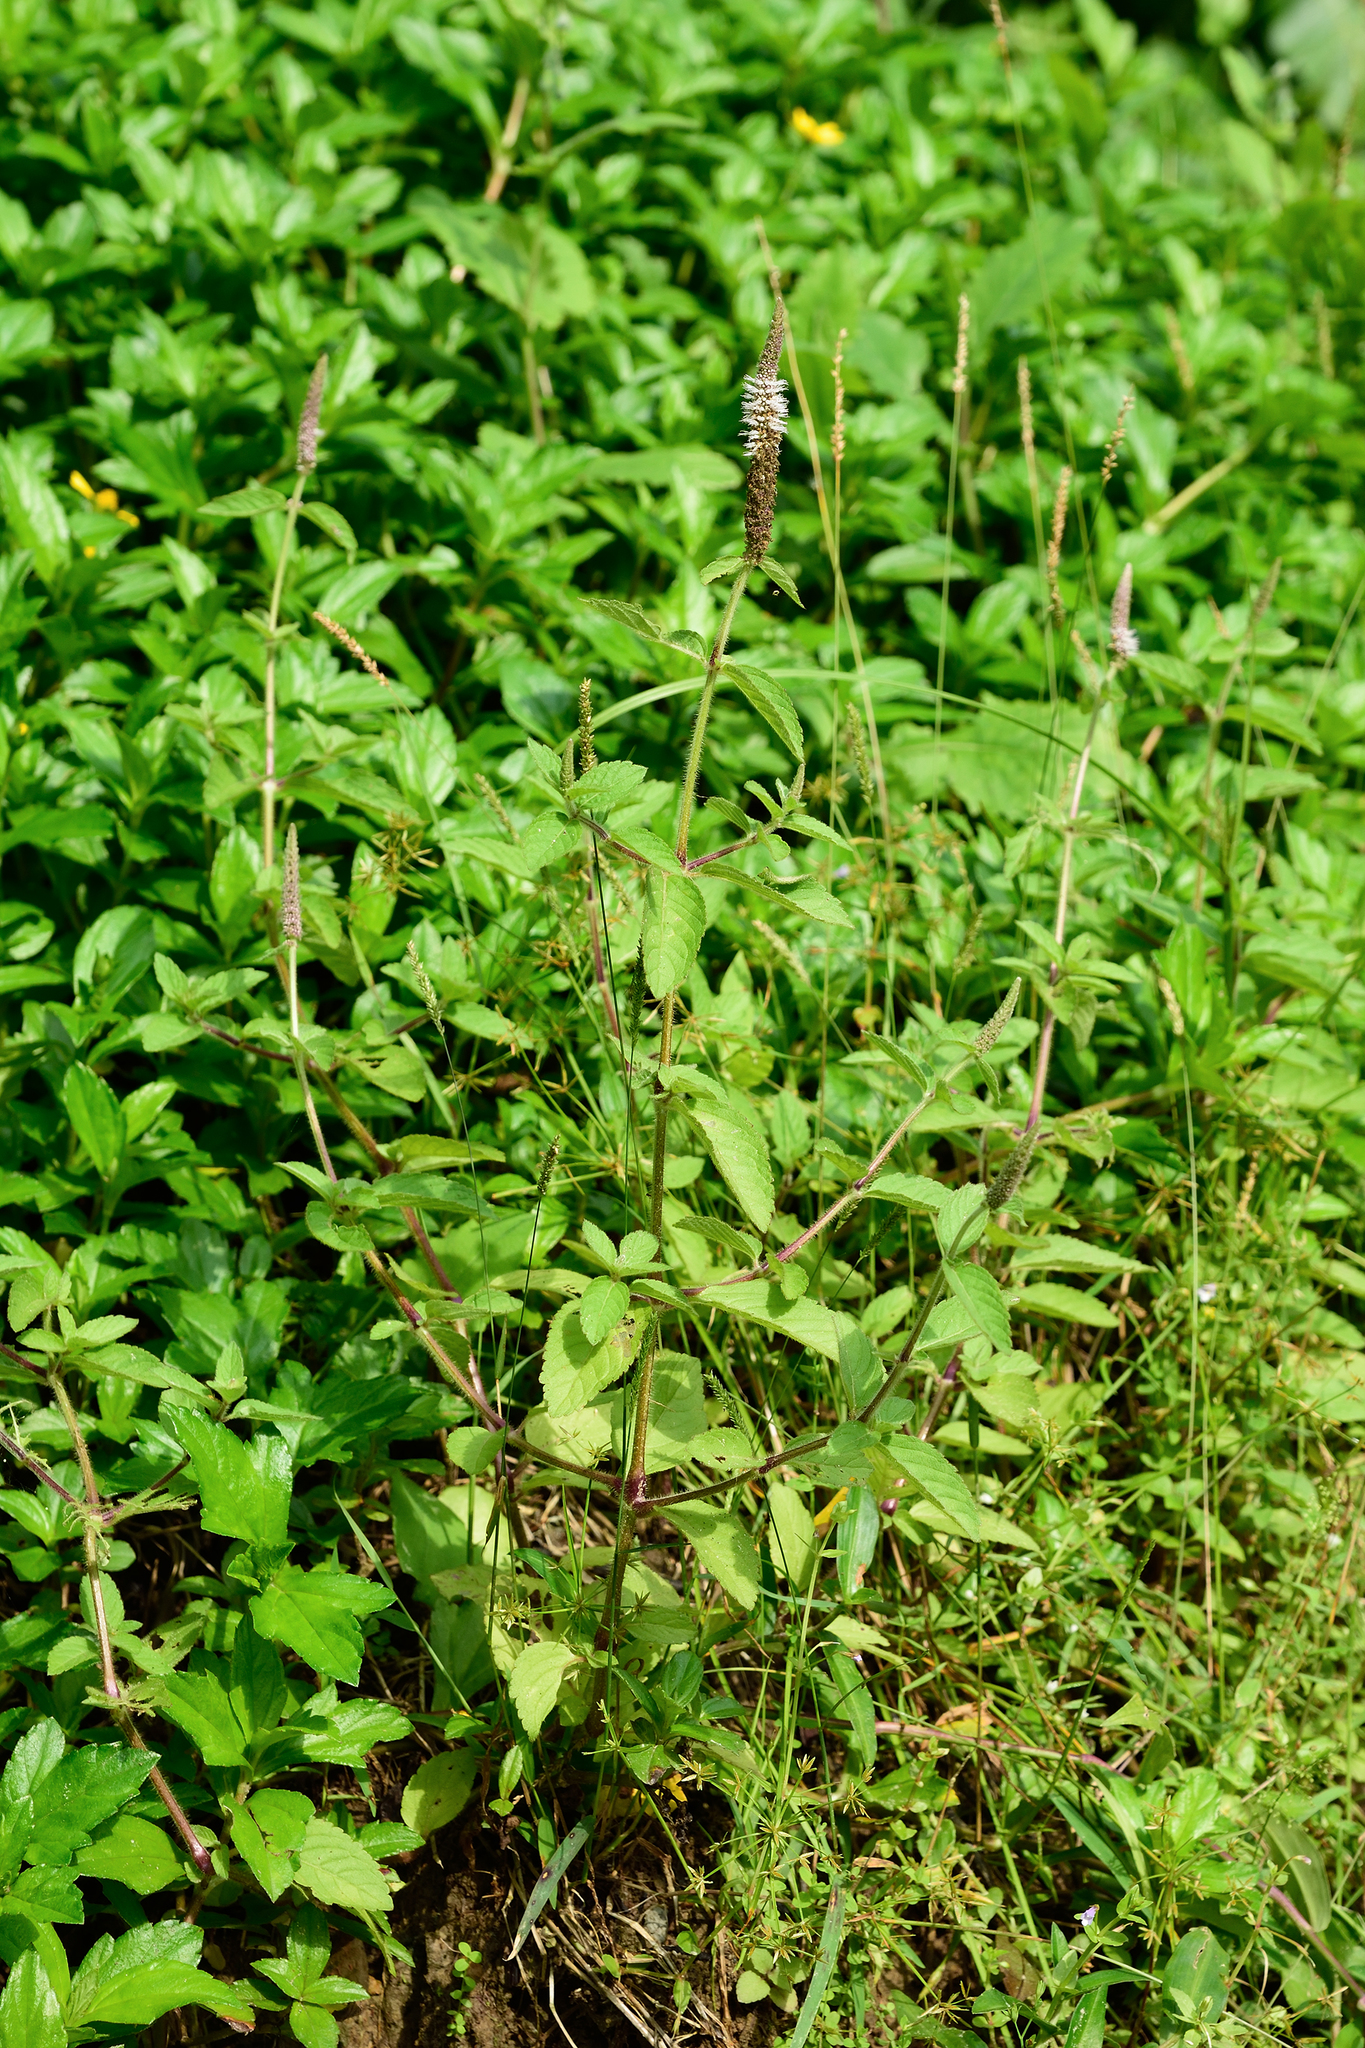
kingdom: Plantae
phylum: Tracheophyta
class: Magnoliopsida
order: Lamiales
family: Lamiaceae
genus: Pogostemon
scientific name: Pogostemon auricularius
